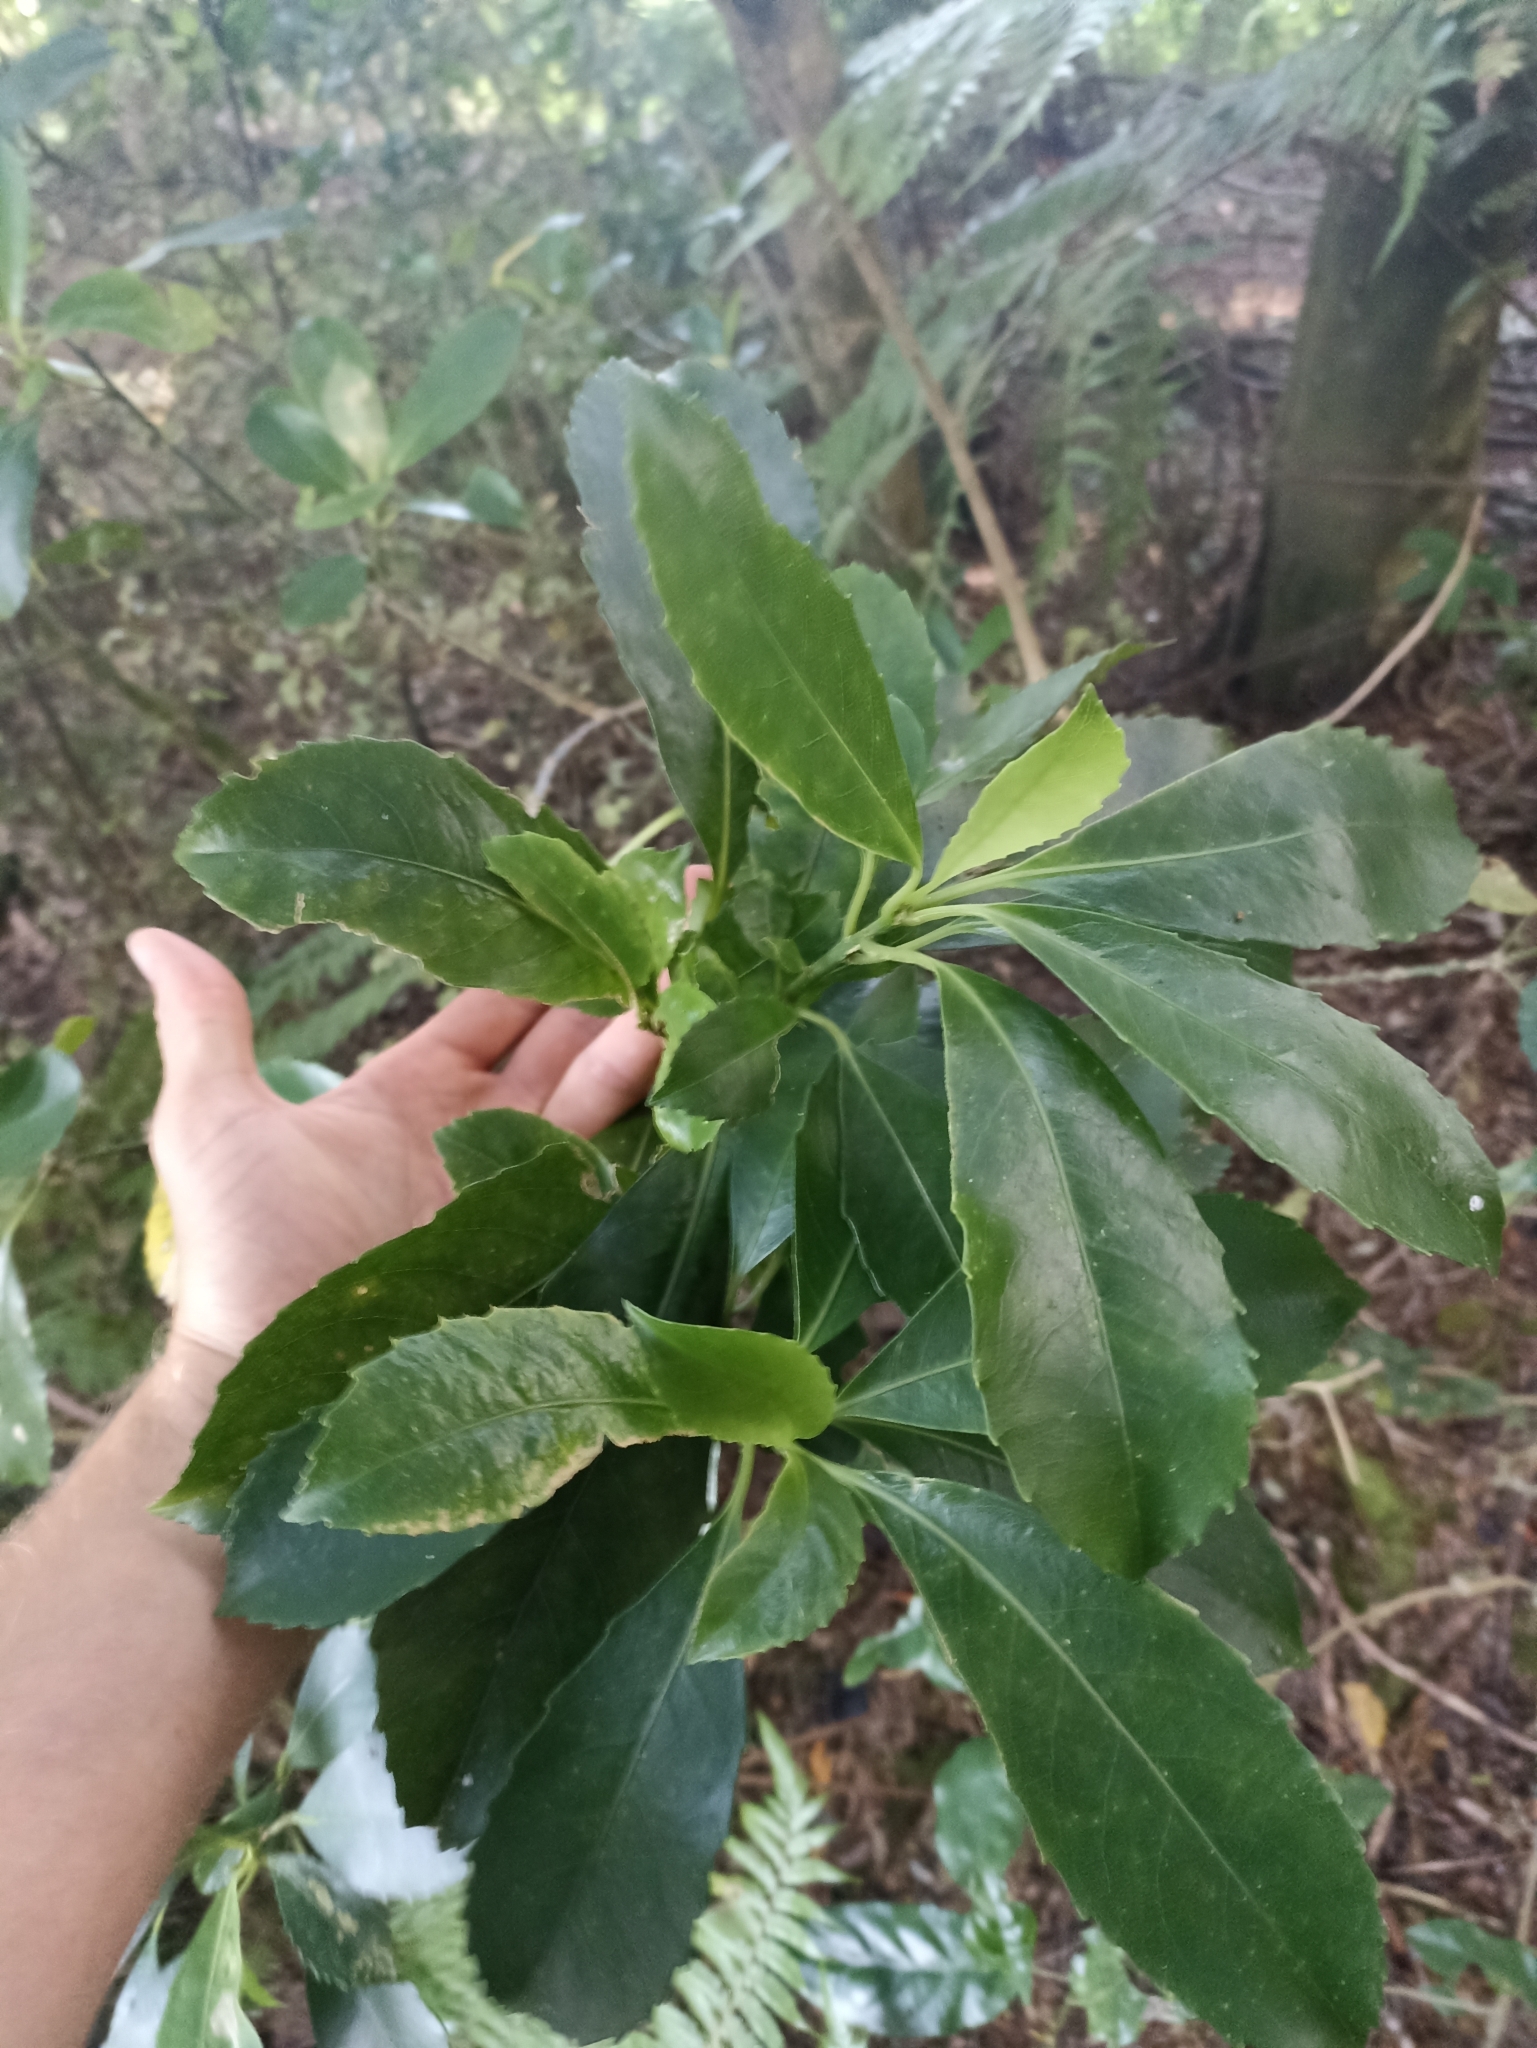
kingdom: Plantae
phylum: Tracheophyta
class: Magnoliopsida
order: Malpighiales
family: Violaceae
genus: Melicytus
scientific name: Melicytus macrophyllus
